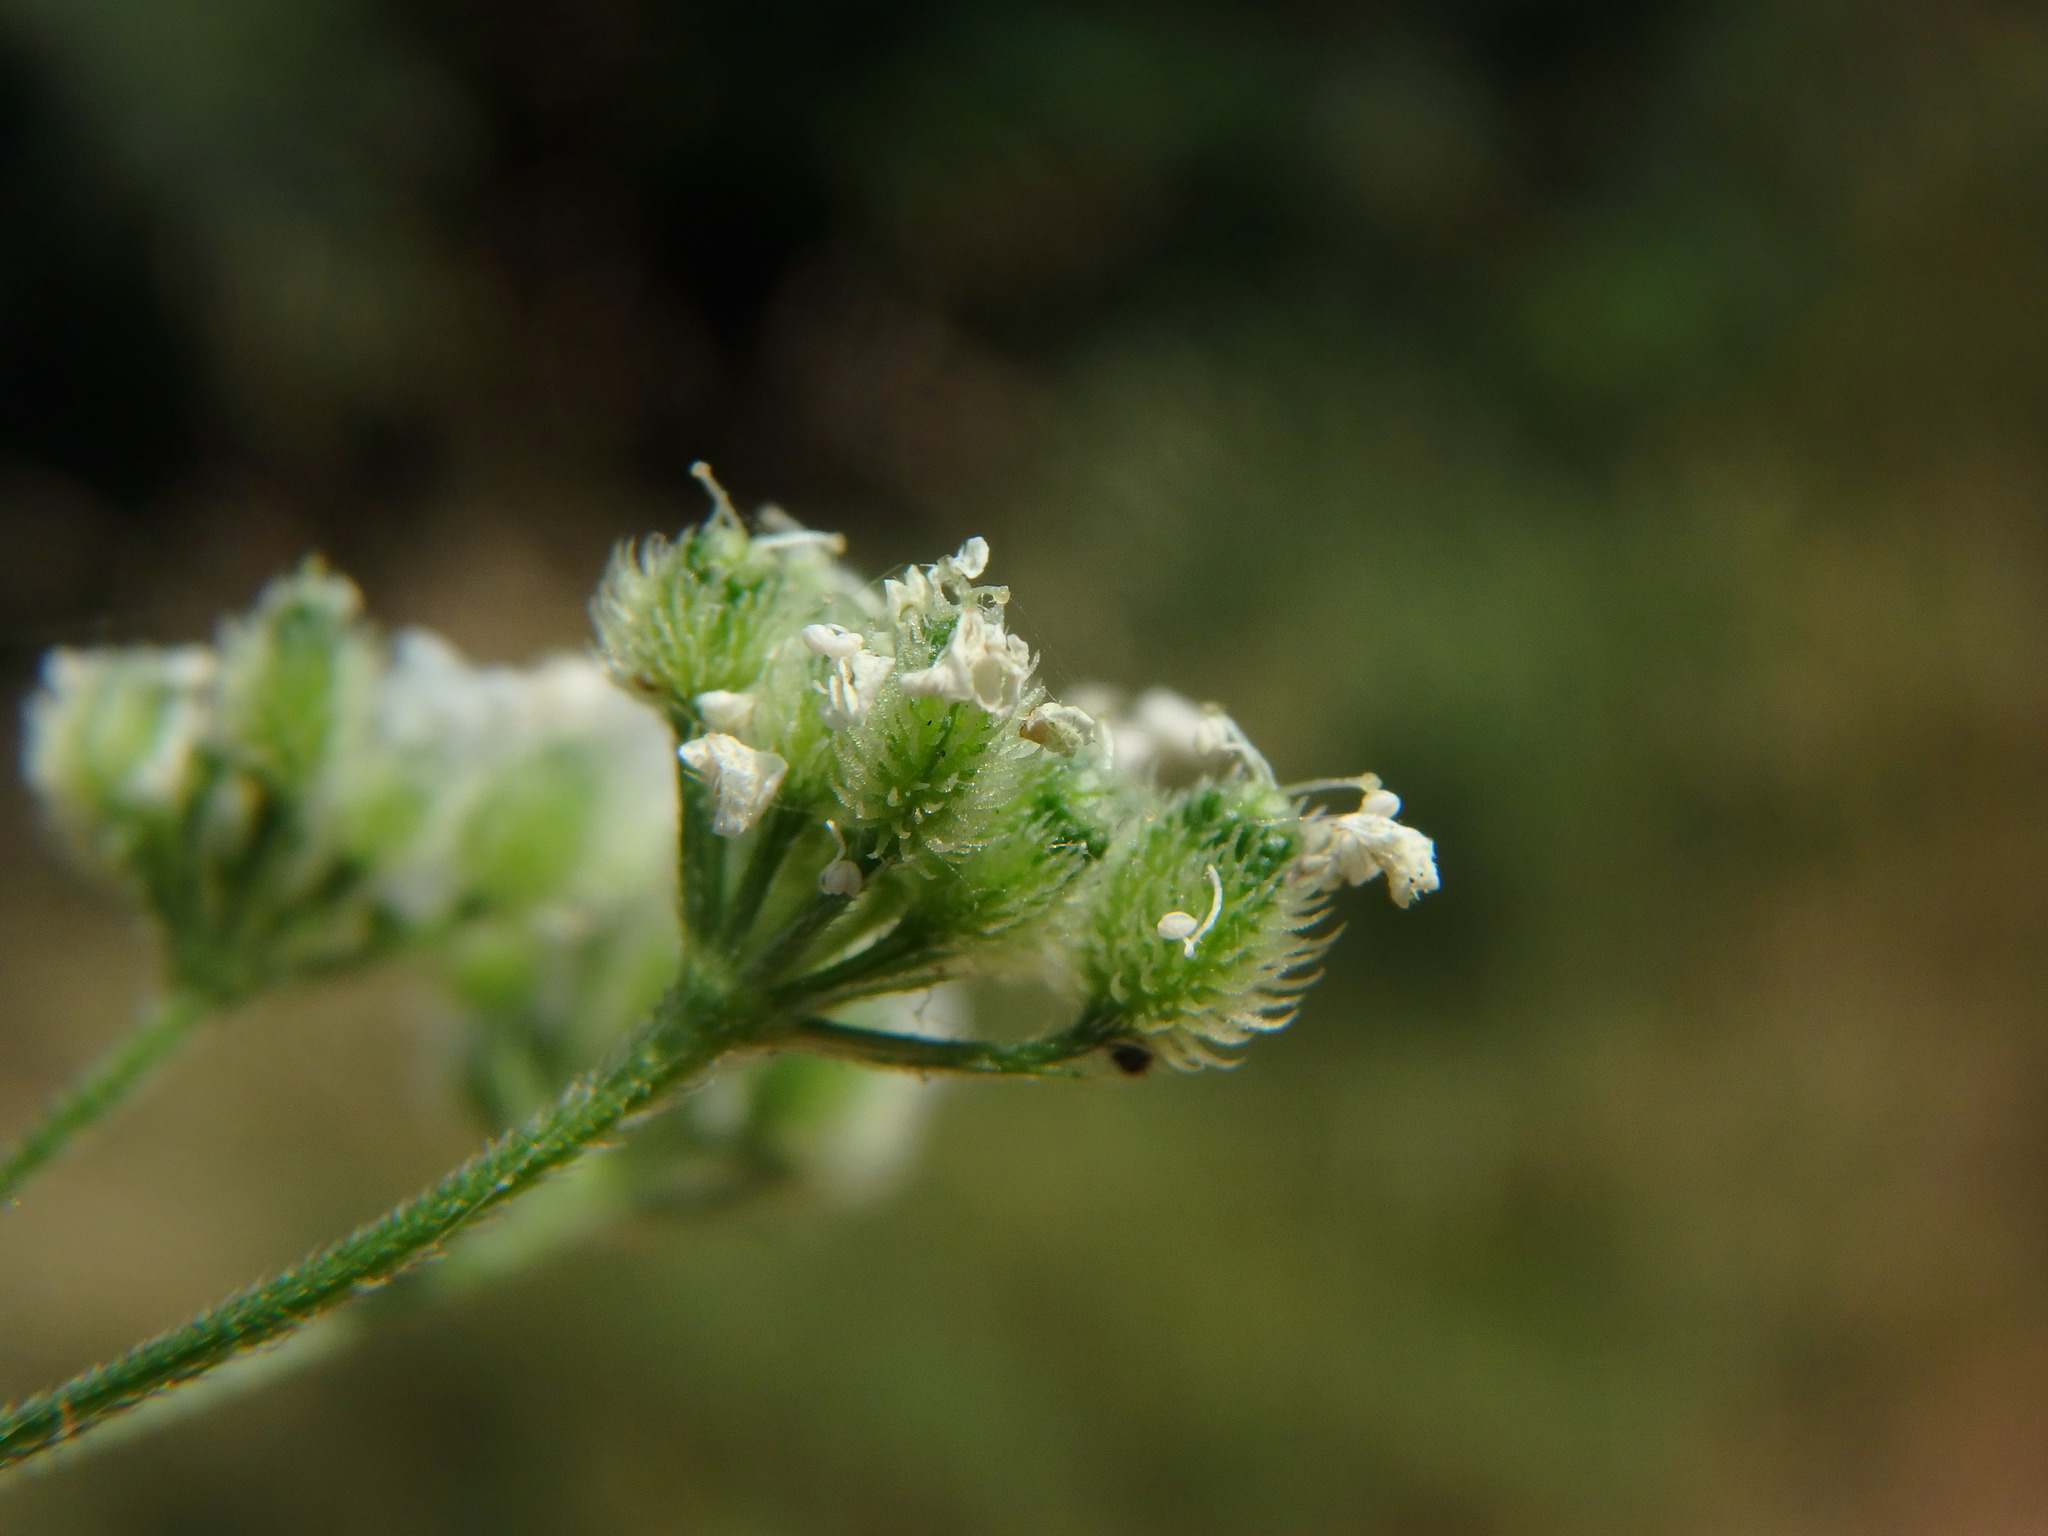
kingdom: Plantae
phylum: Tracheophyta
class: Magnoliopsida
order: Apiales
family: Apiaceae
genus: Torilis
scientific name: Torilis japonica
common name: Upright hedge-parsley
